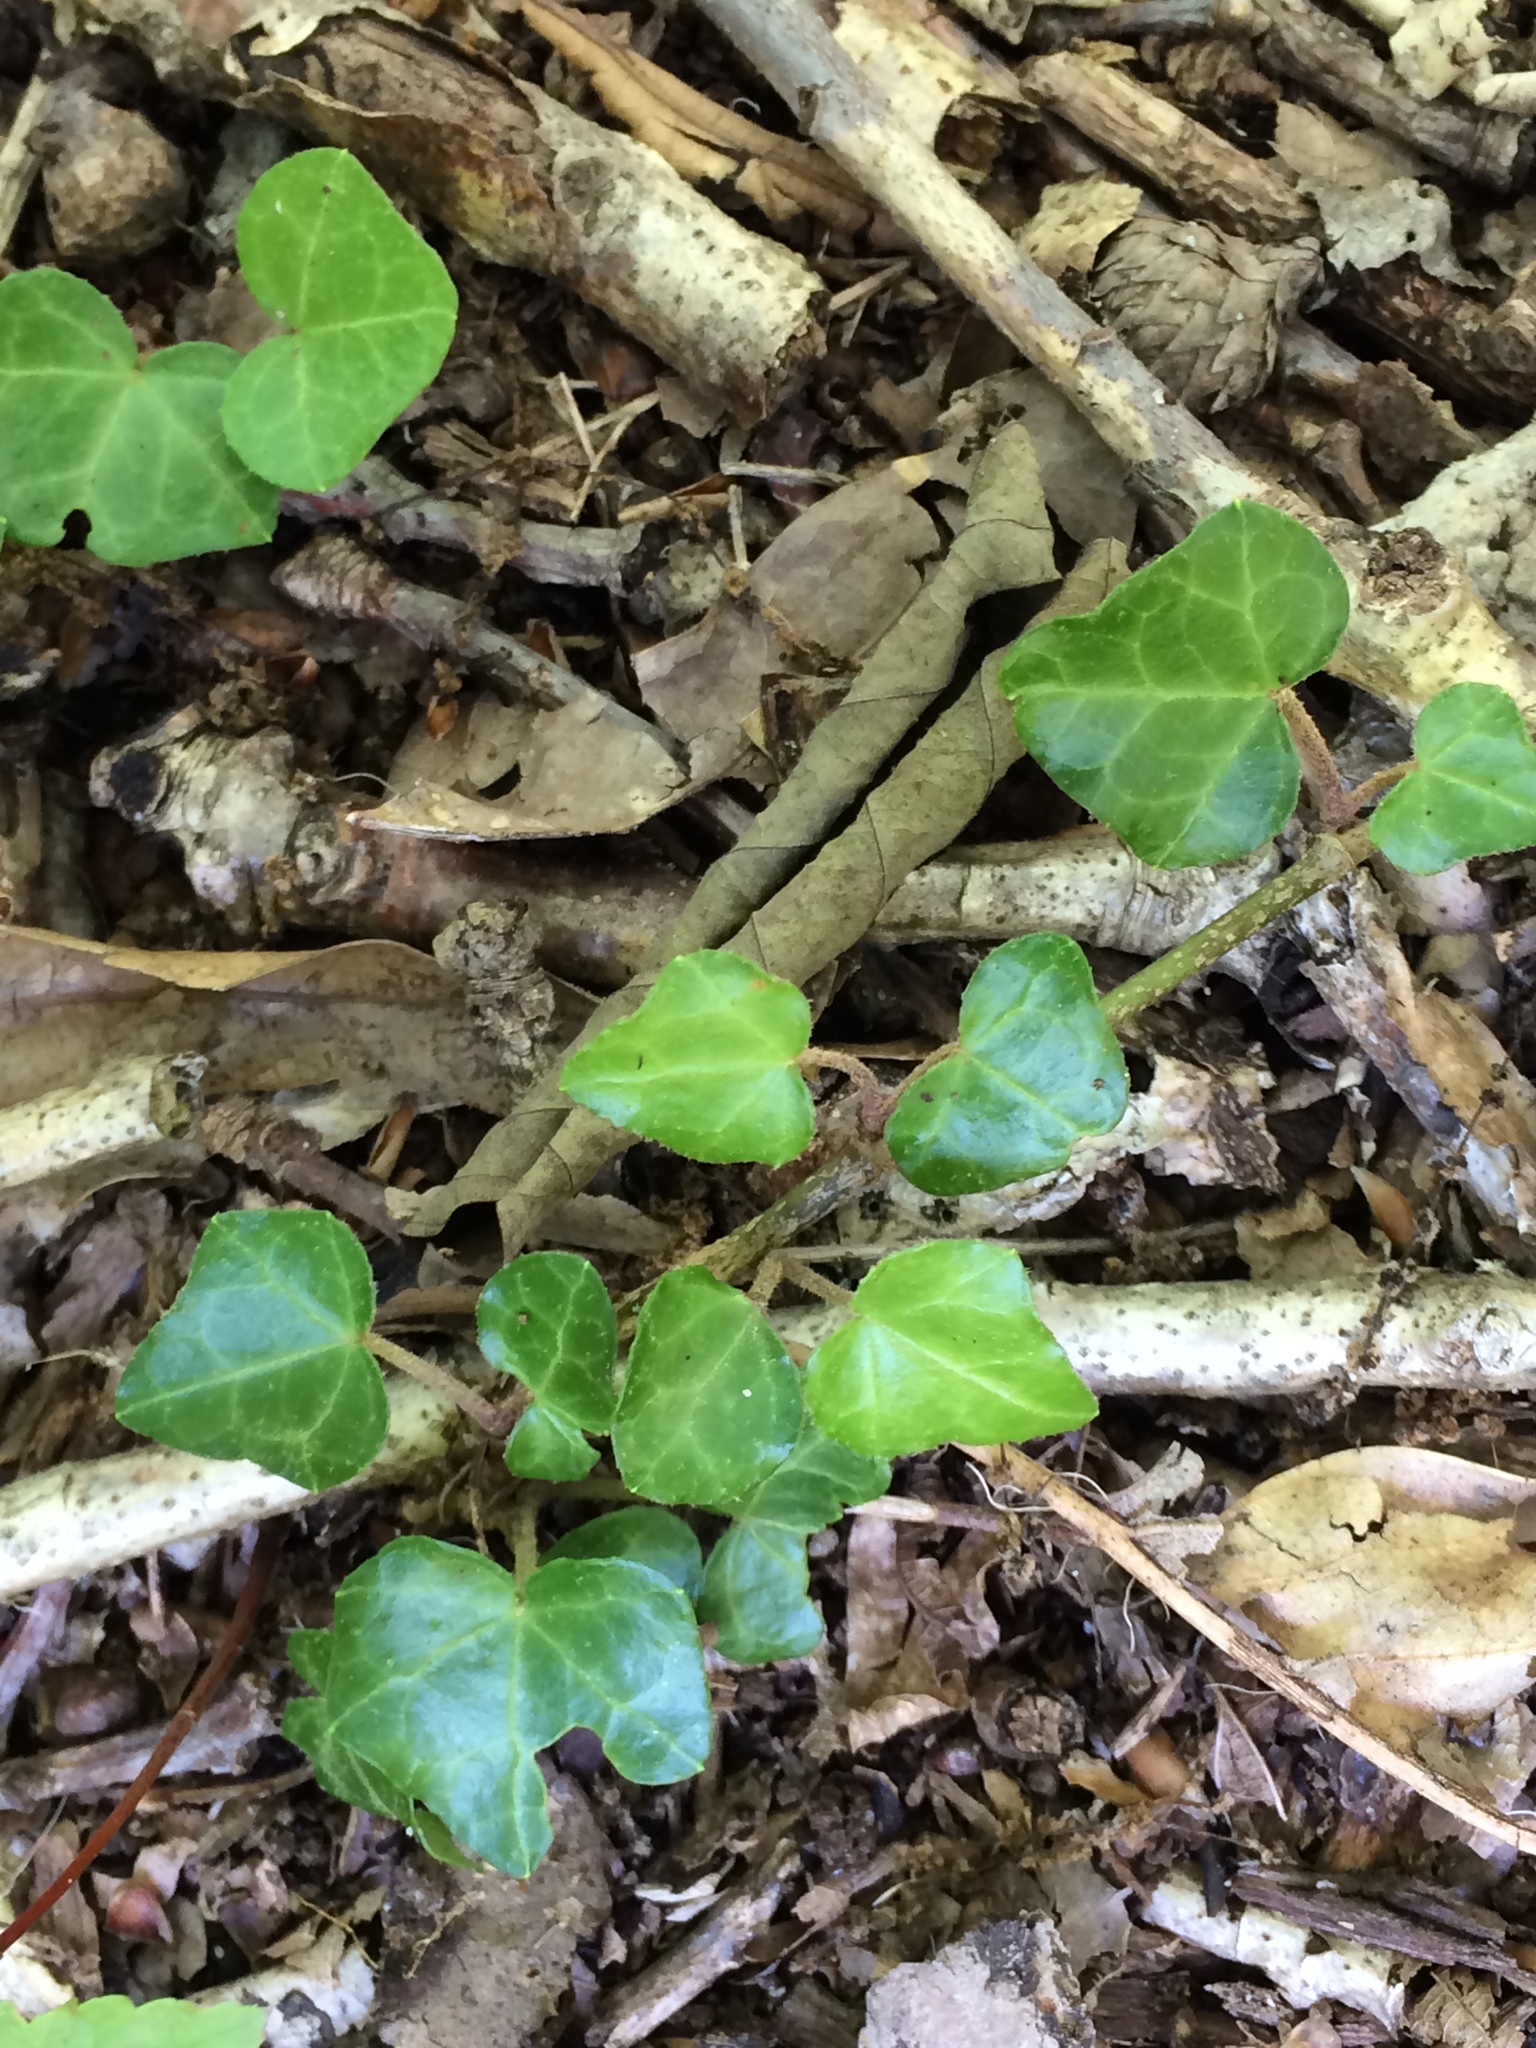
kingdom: Plantae
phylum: Tracheophyta
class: Magnoliopsida
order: Apiales
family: Araliaceae
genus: Hedera
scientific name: Hedera helix
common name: Ivy
